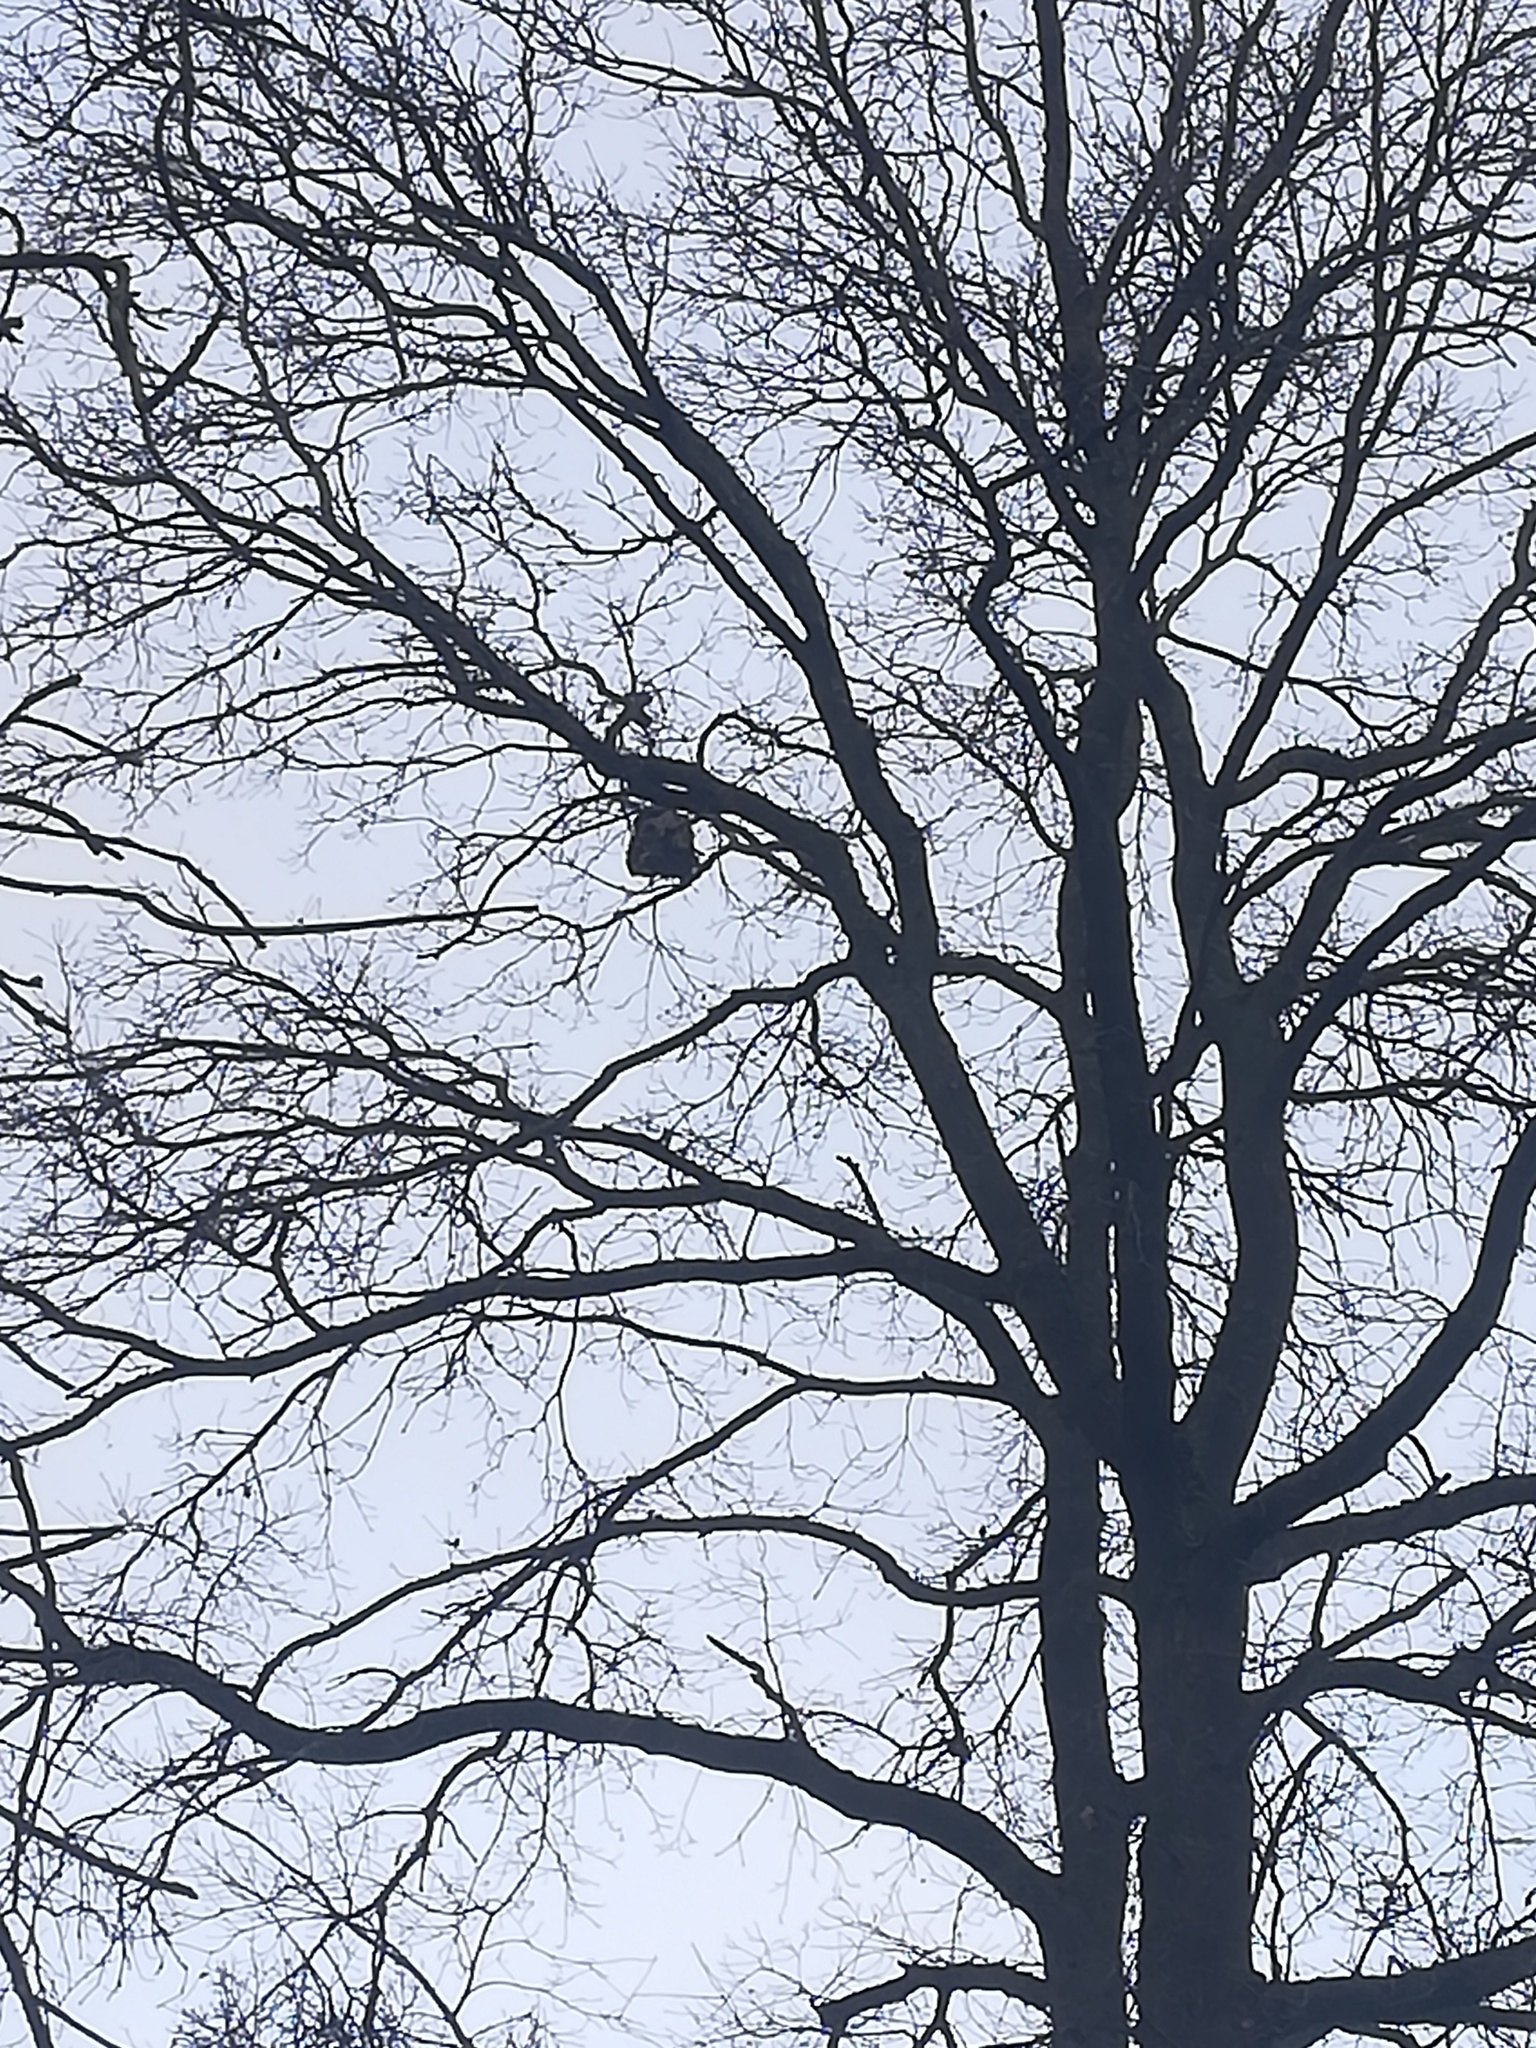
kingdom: Animalia
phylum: Arthropoda
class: Insecta
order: Hymenoptera
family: Vespidae
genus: Vespa
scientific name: Vespa velutina
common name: Asian hornet
